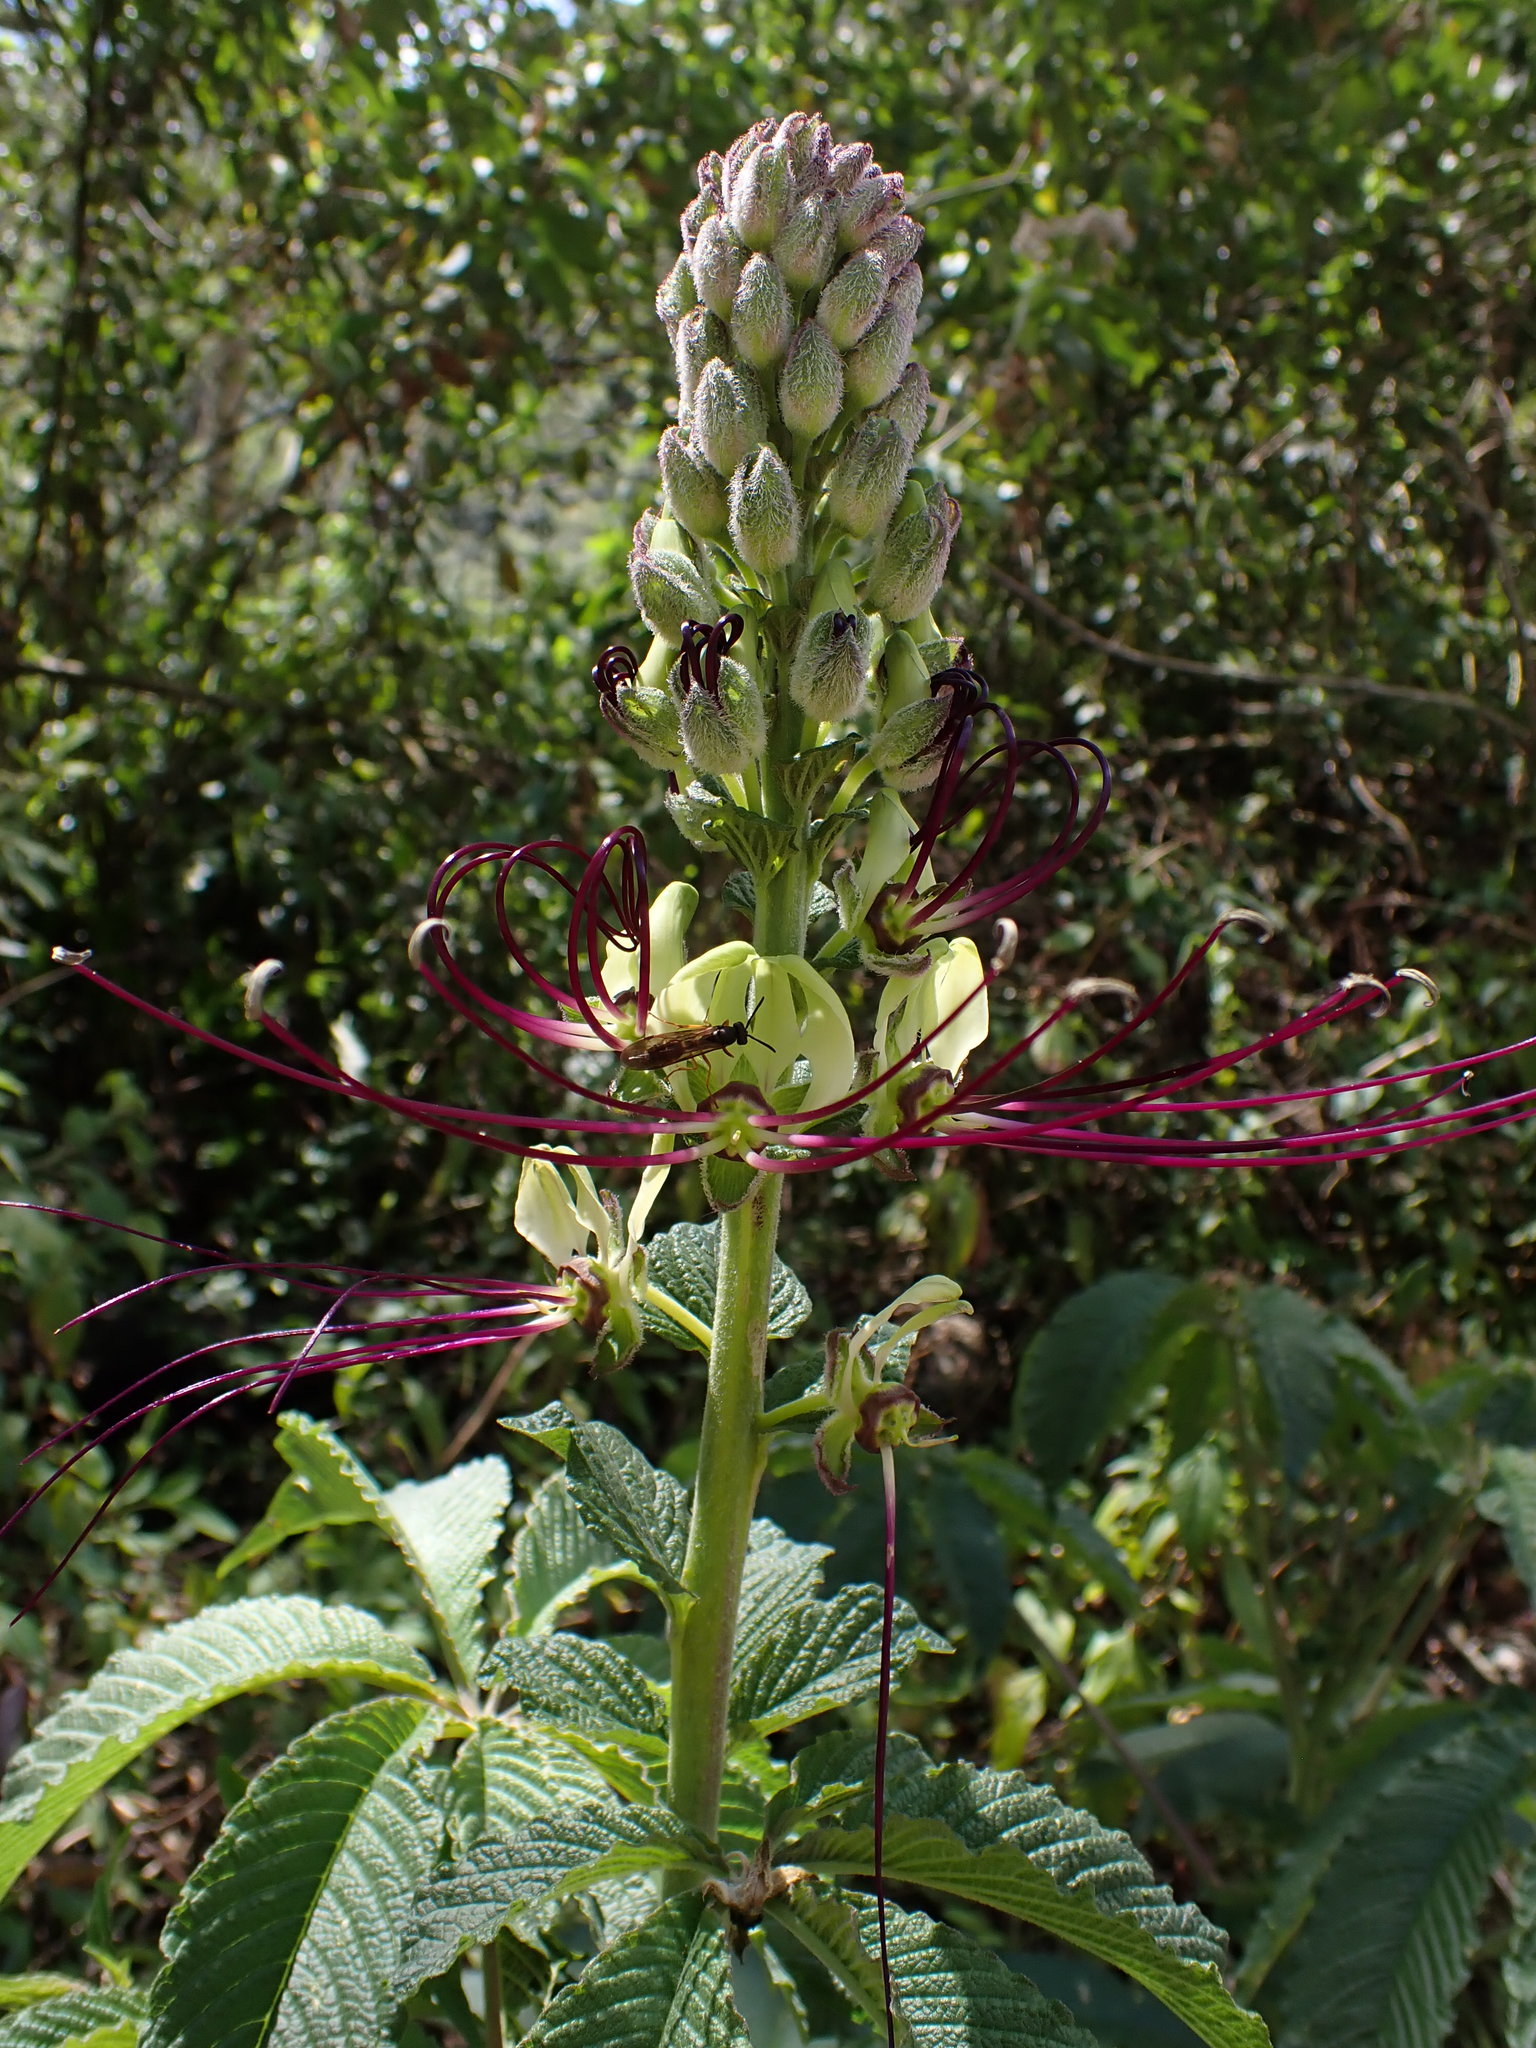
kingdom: Plantae
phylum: Tracheophyta
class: Magnoliopsida
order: Brassicales
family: Cleomaceae
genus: Andinocleome
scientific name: Andinocleome lechleri
